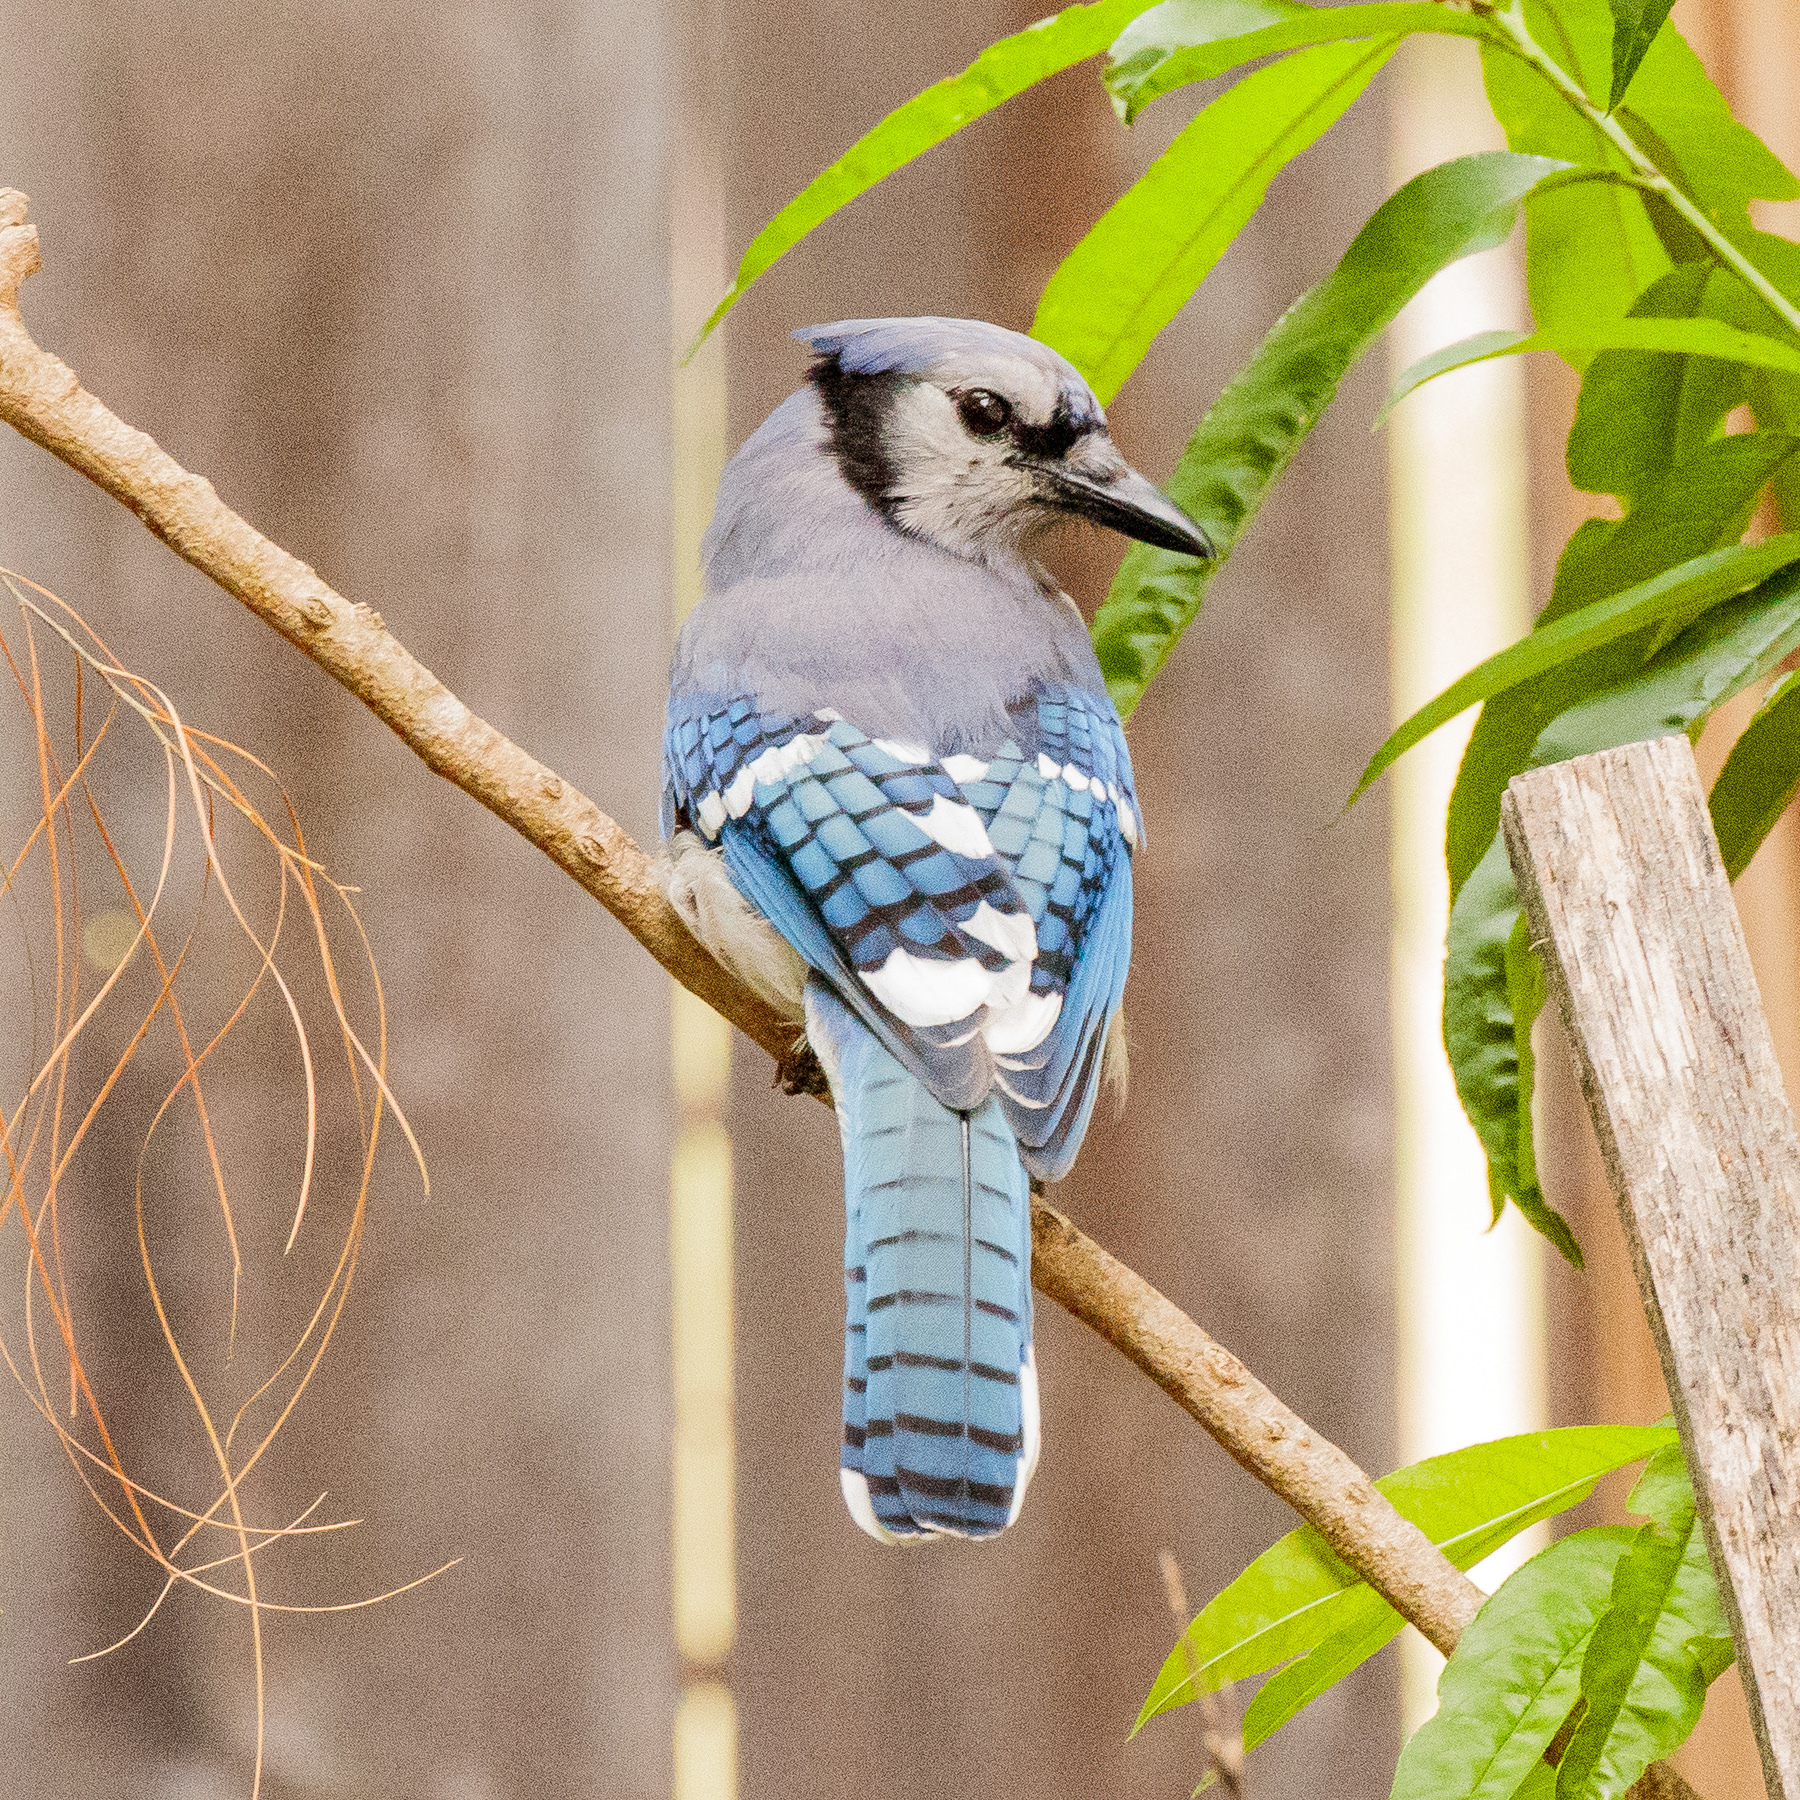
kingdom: Animalia
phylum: Chordata
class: Aves
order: Passeriformes
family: Corvidae
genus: Cyanocitta
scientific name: Cyanocitta cristata
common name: Blue jay
